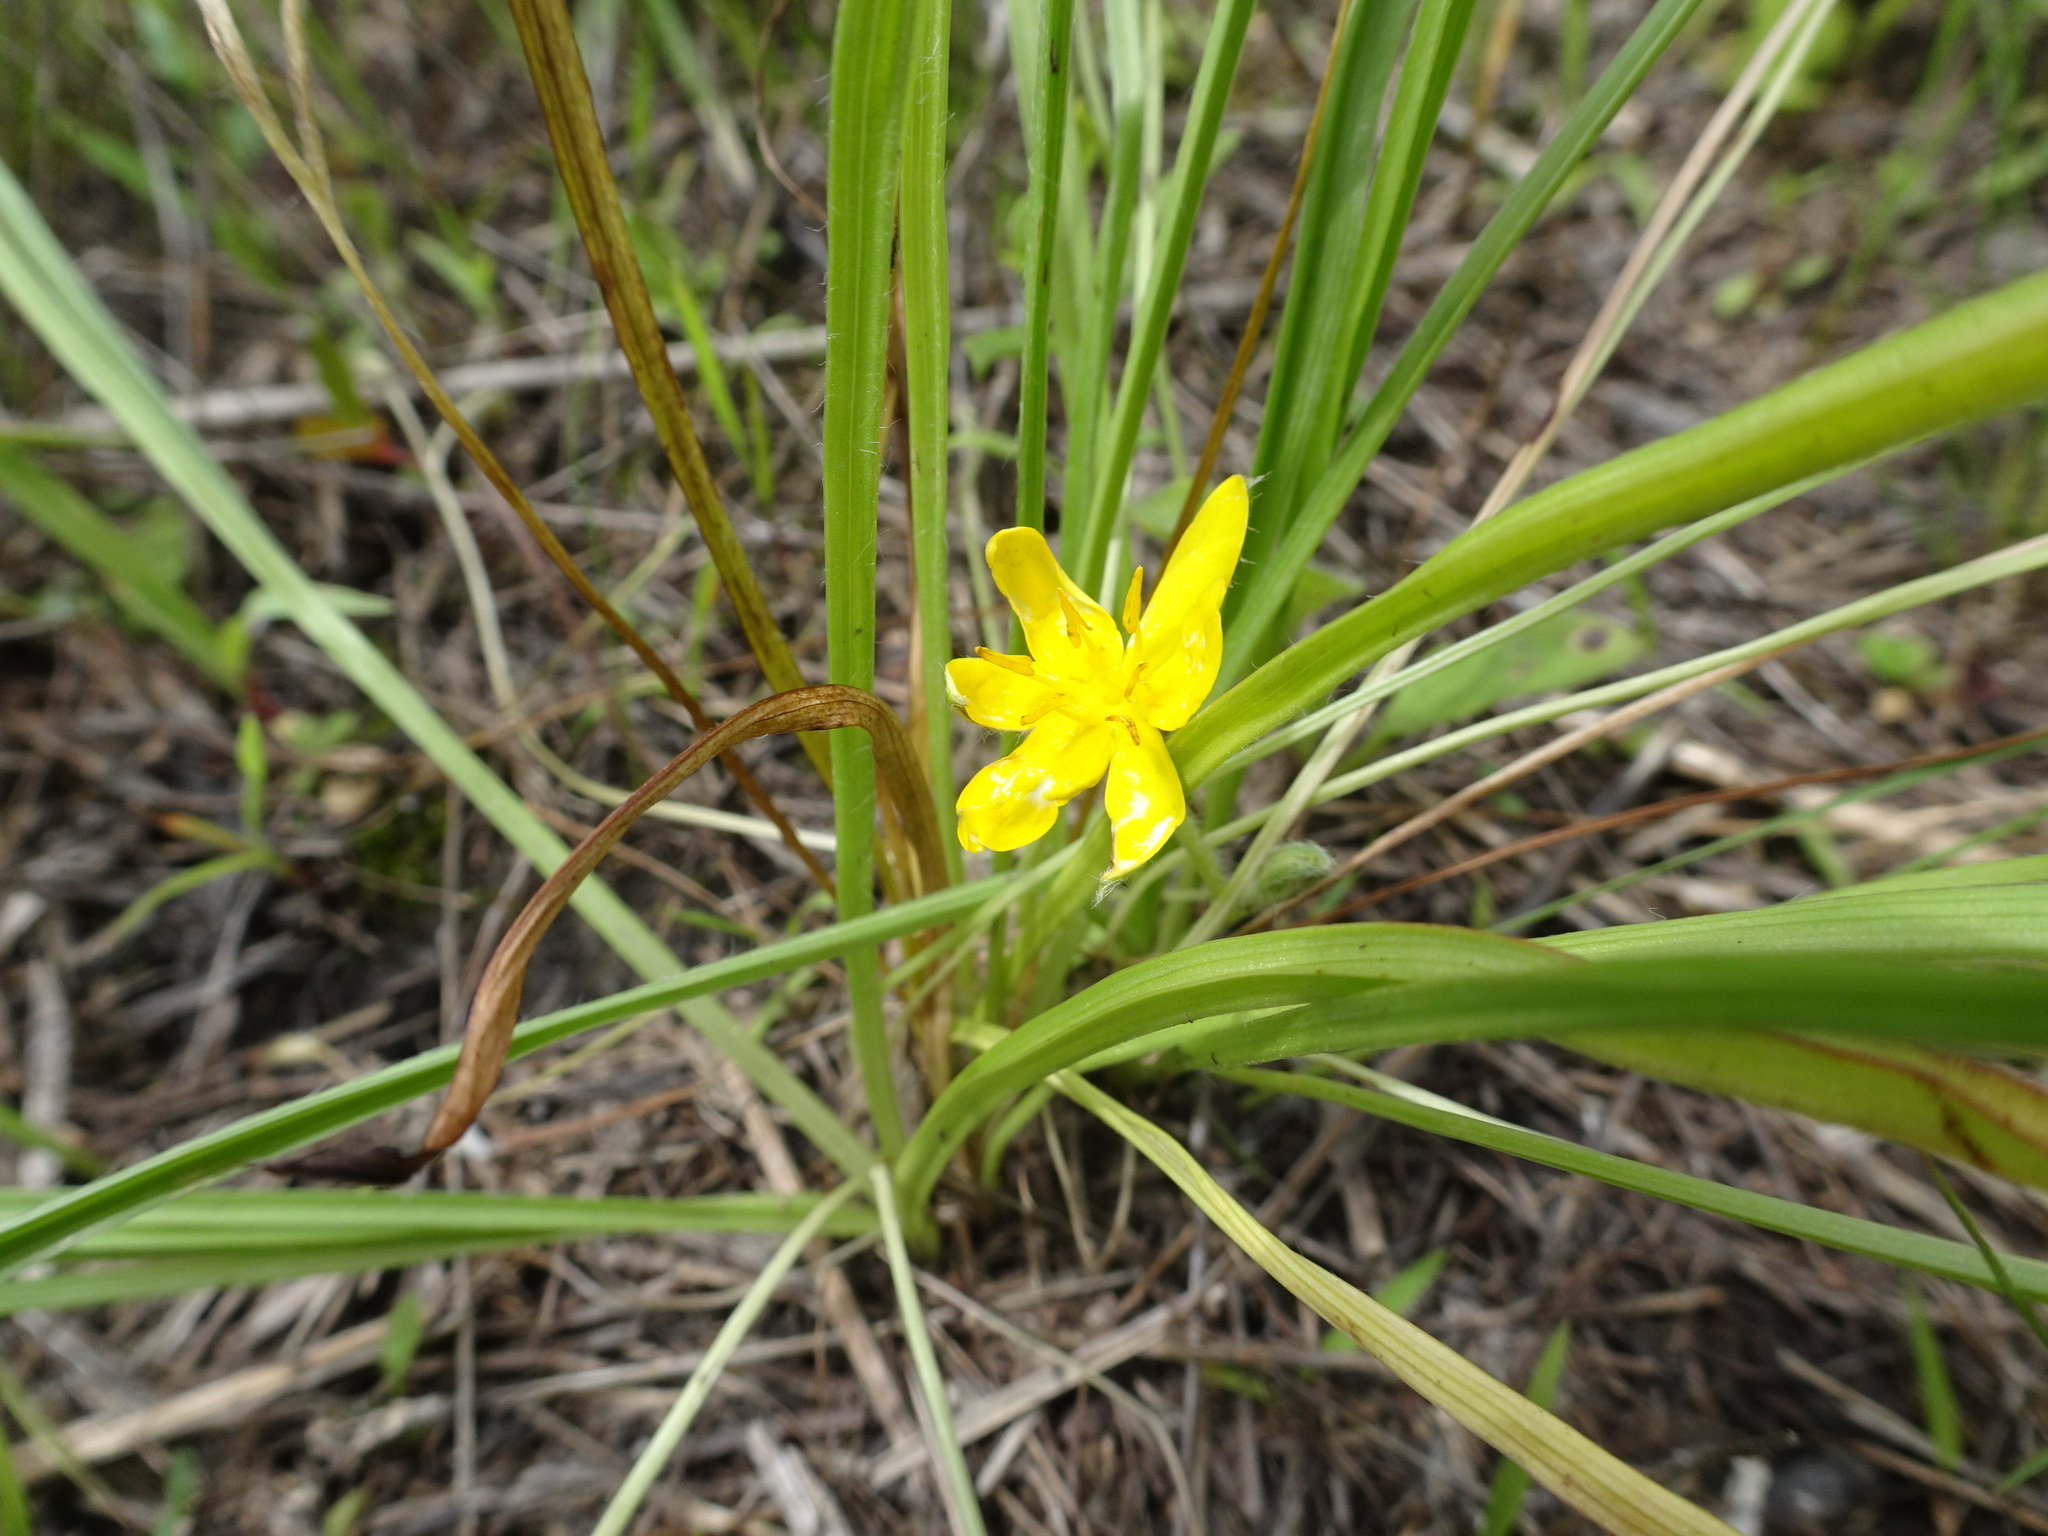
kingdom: Plantae
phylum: Tracheophyta
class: Liliopsida
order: Asparagales
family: Hypoxidaceae
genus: Hypoxis
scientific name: Hypoxis hirsuta
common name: Common goldstar
